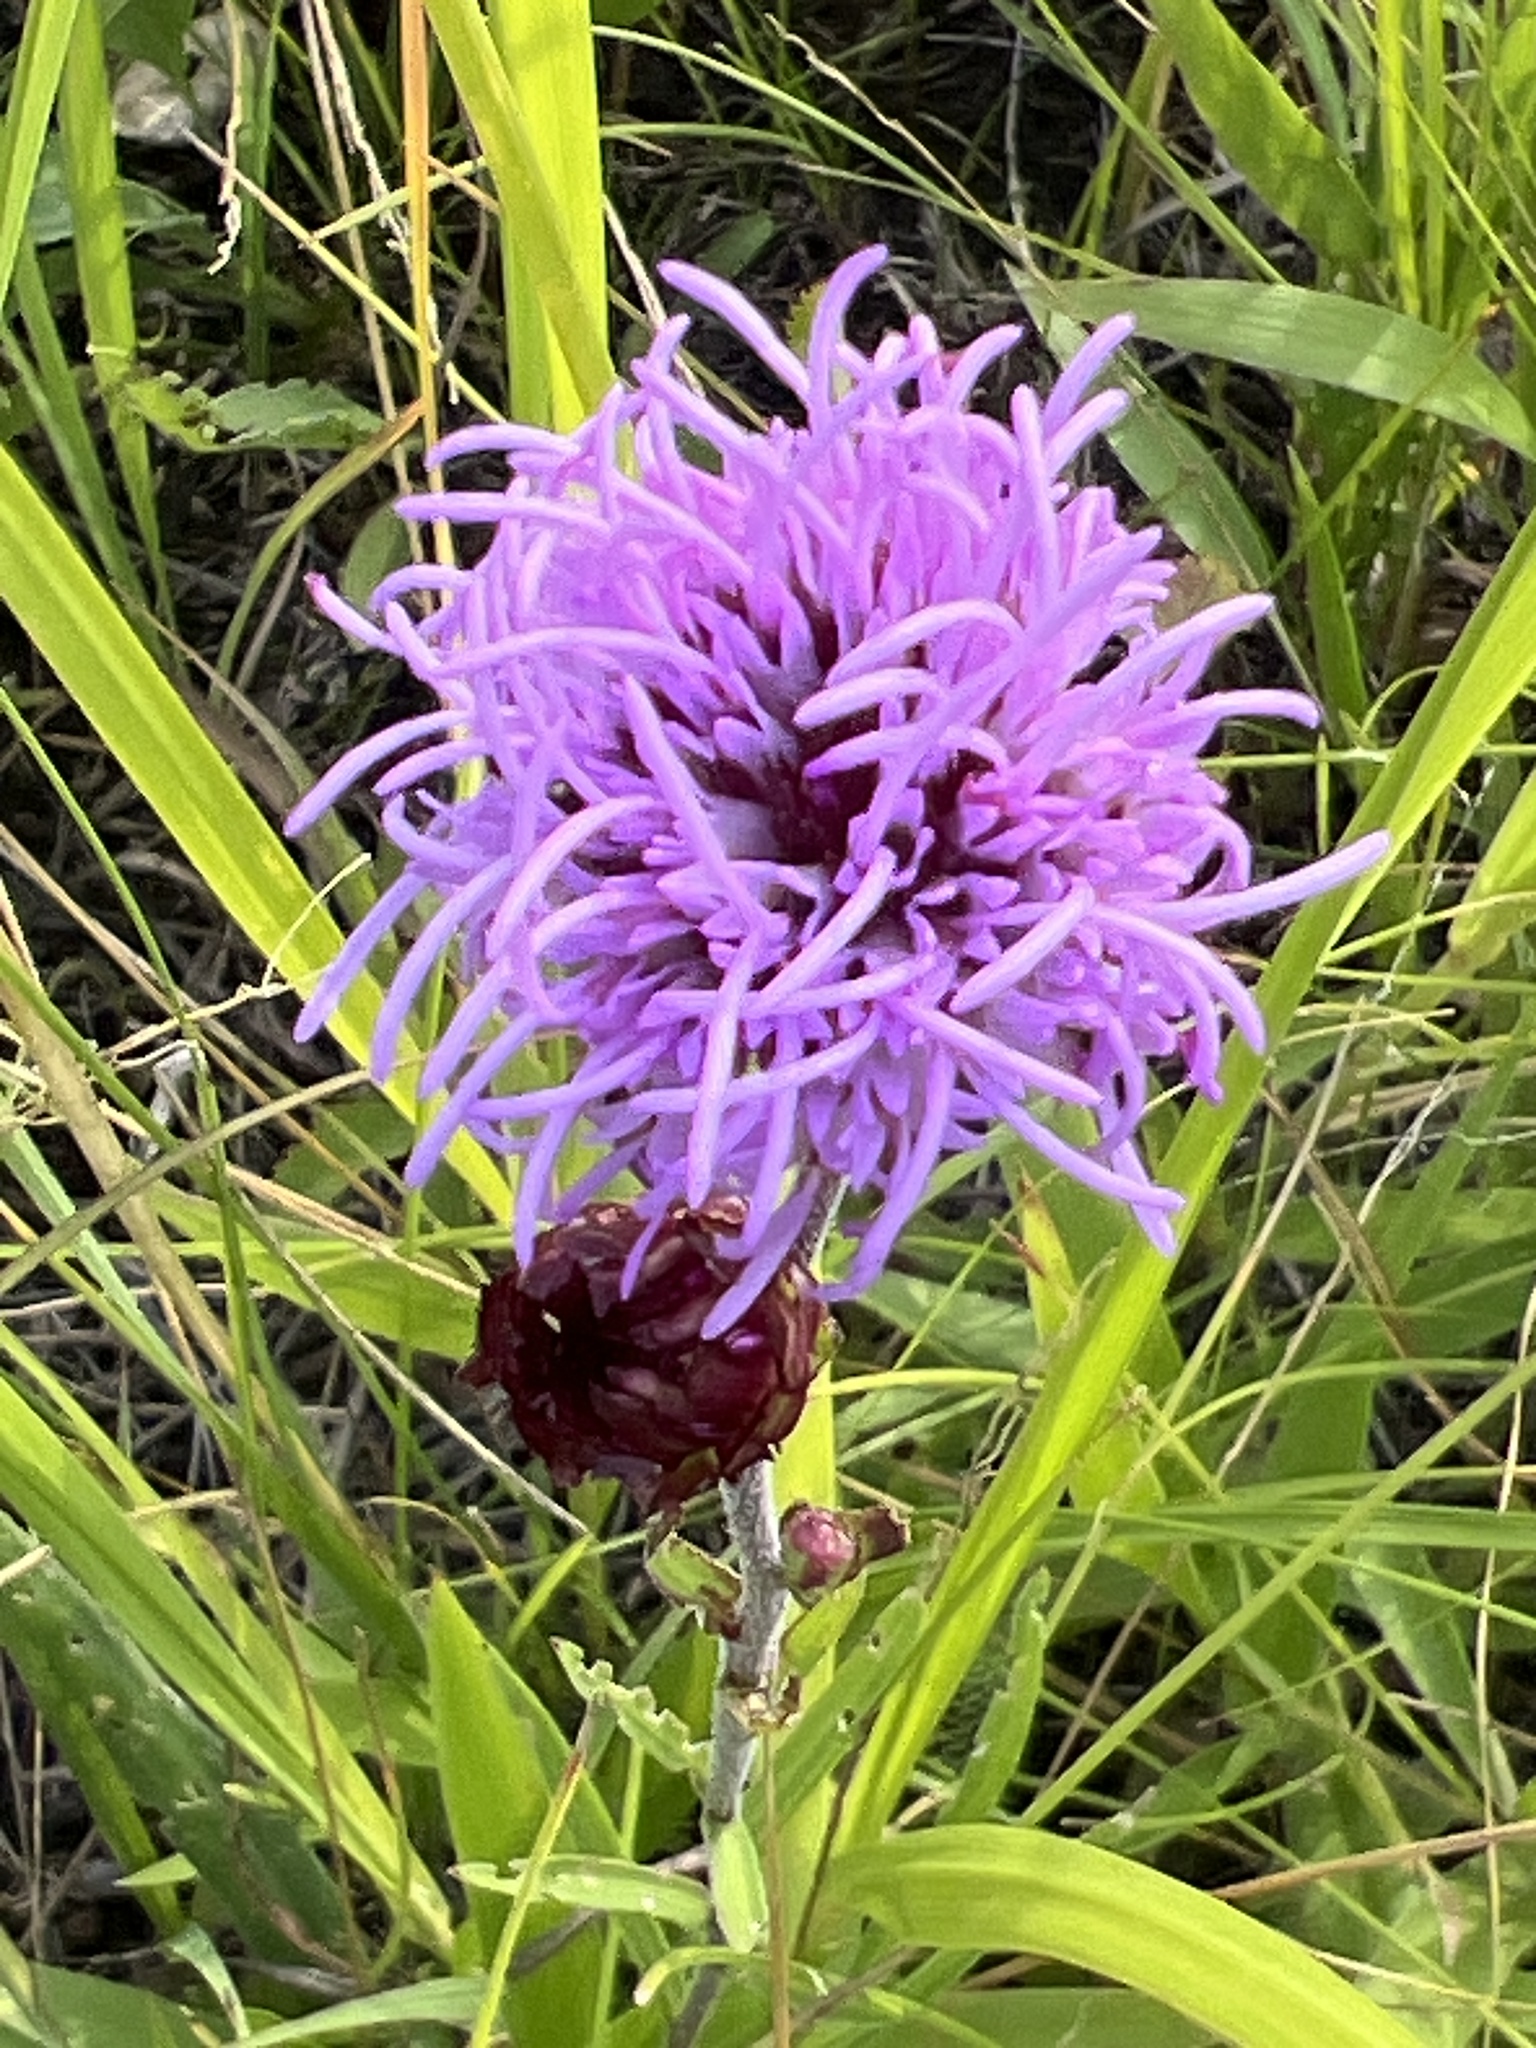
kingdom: Plantae
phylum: Tracheophyta
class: Magnoliopsida
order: Asterales
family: Asteraceae
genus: Liatris
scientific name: Liatris ligulistylis
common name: Northern plains gayfeather
